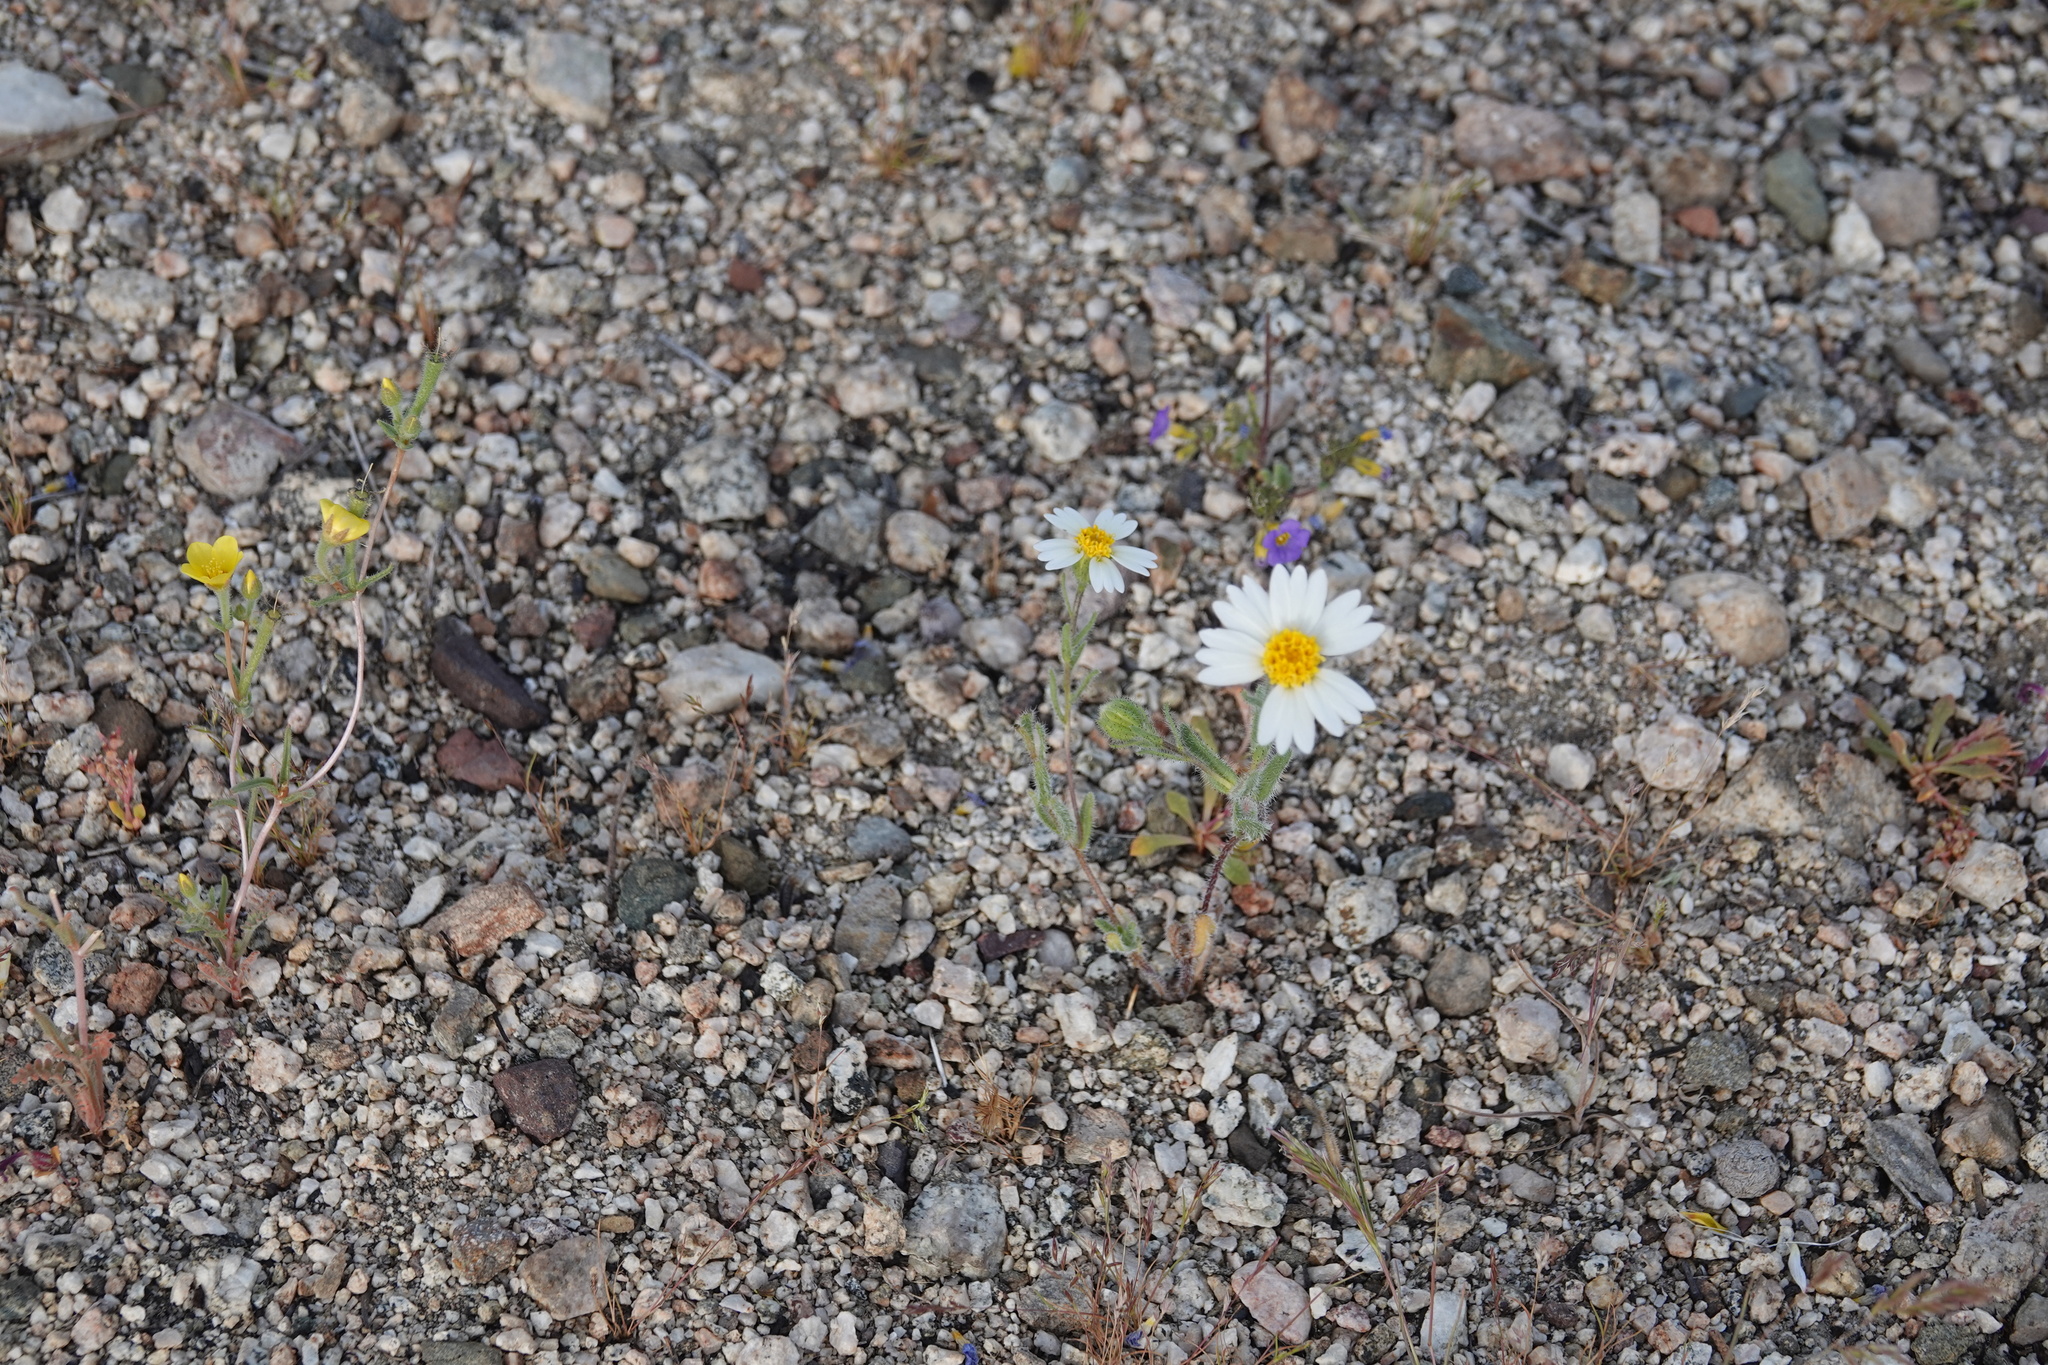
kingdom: Plantae
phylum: Tracheophyta
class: Magnoliopsida
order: Asterales
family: Asteraceae
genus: Layia
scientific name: Layia glandulosa
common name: White layia
